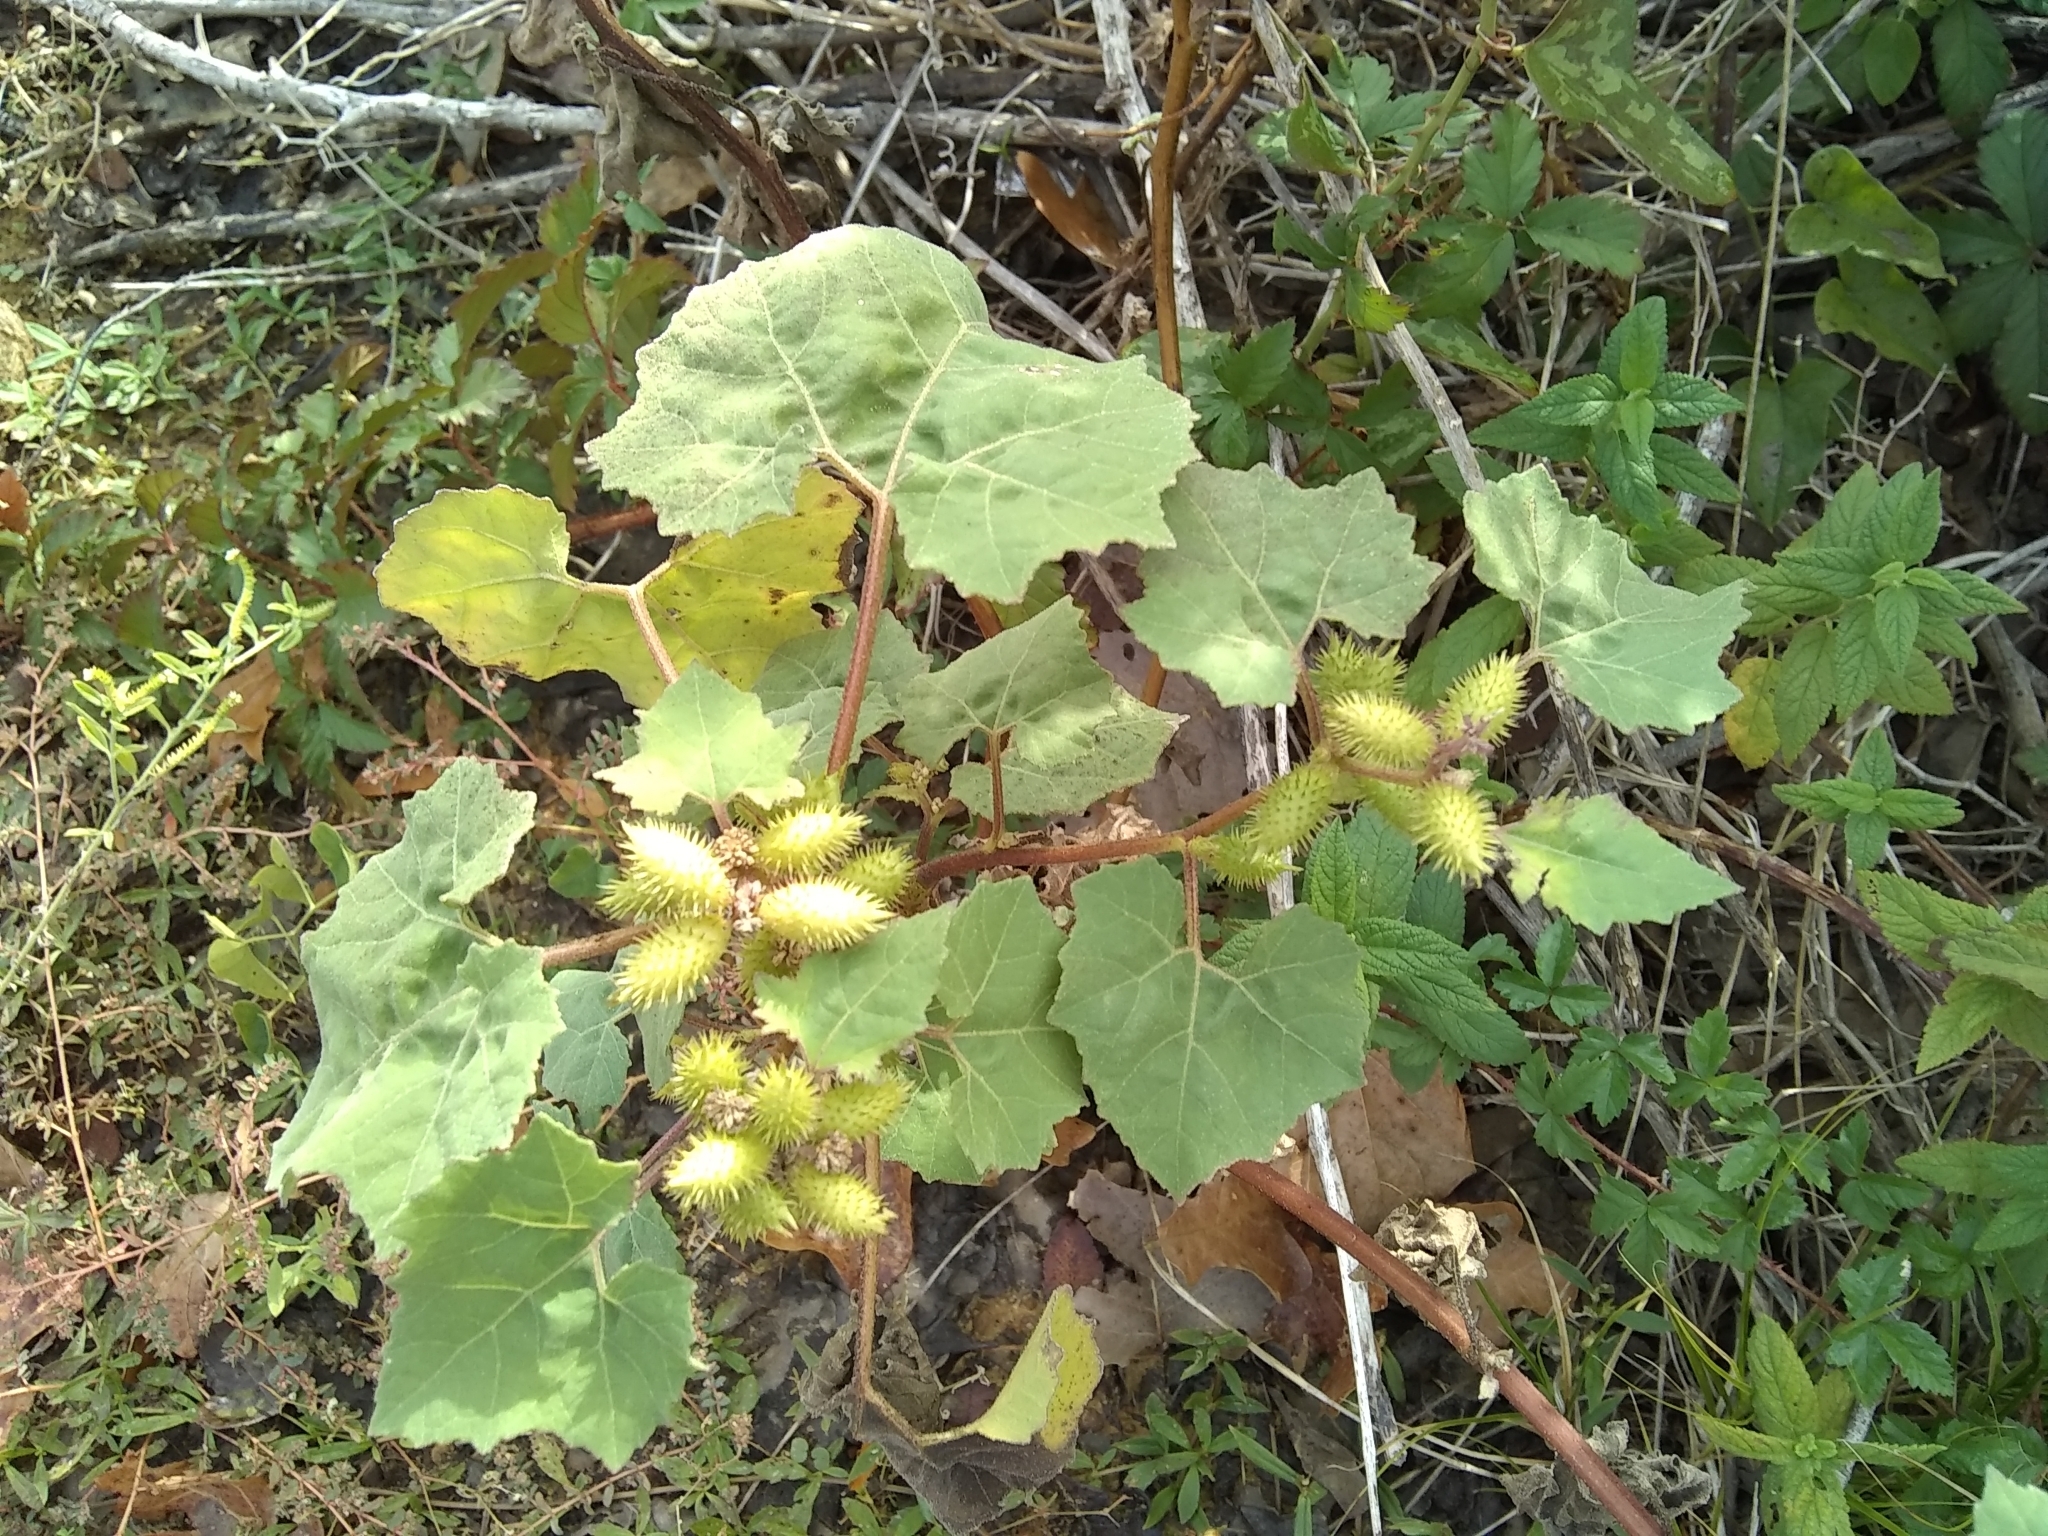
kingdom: Plantae
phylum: Tracheophyta
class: Magnoliopsida
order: Asterales
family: Asteraceae
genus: Xanthium
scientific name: Xanthium strumarium
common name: Rough cocklebur
